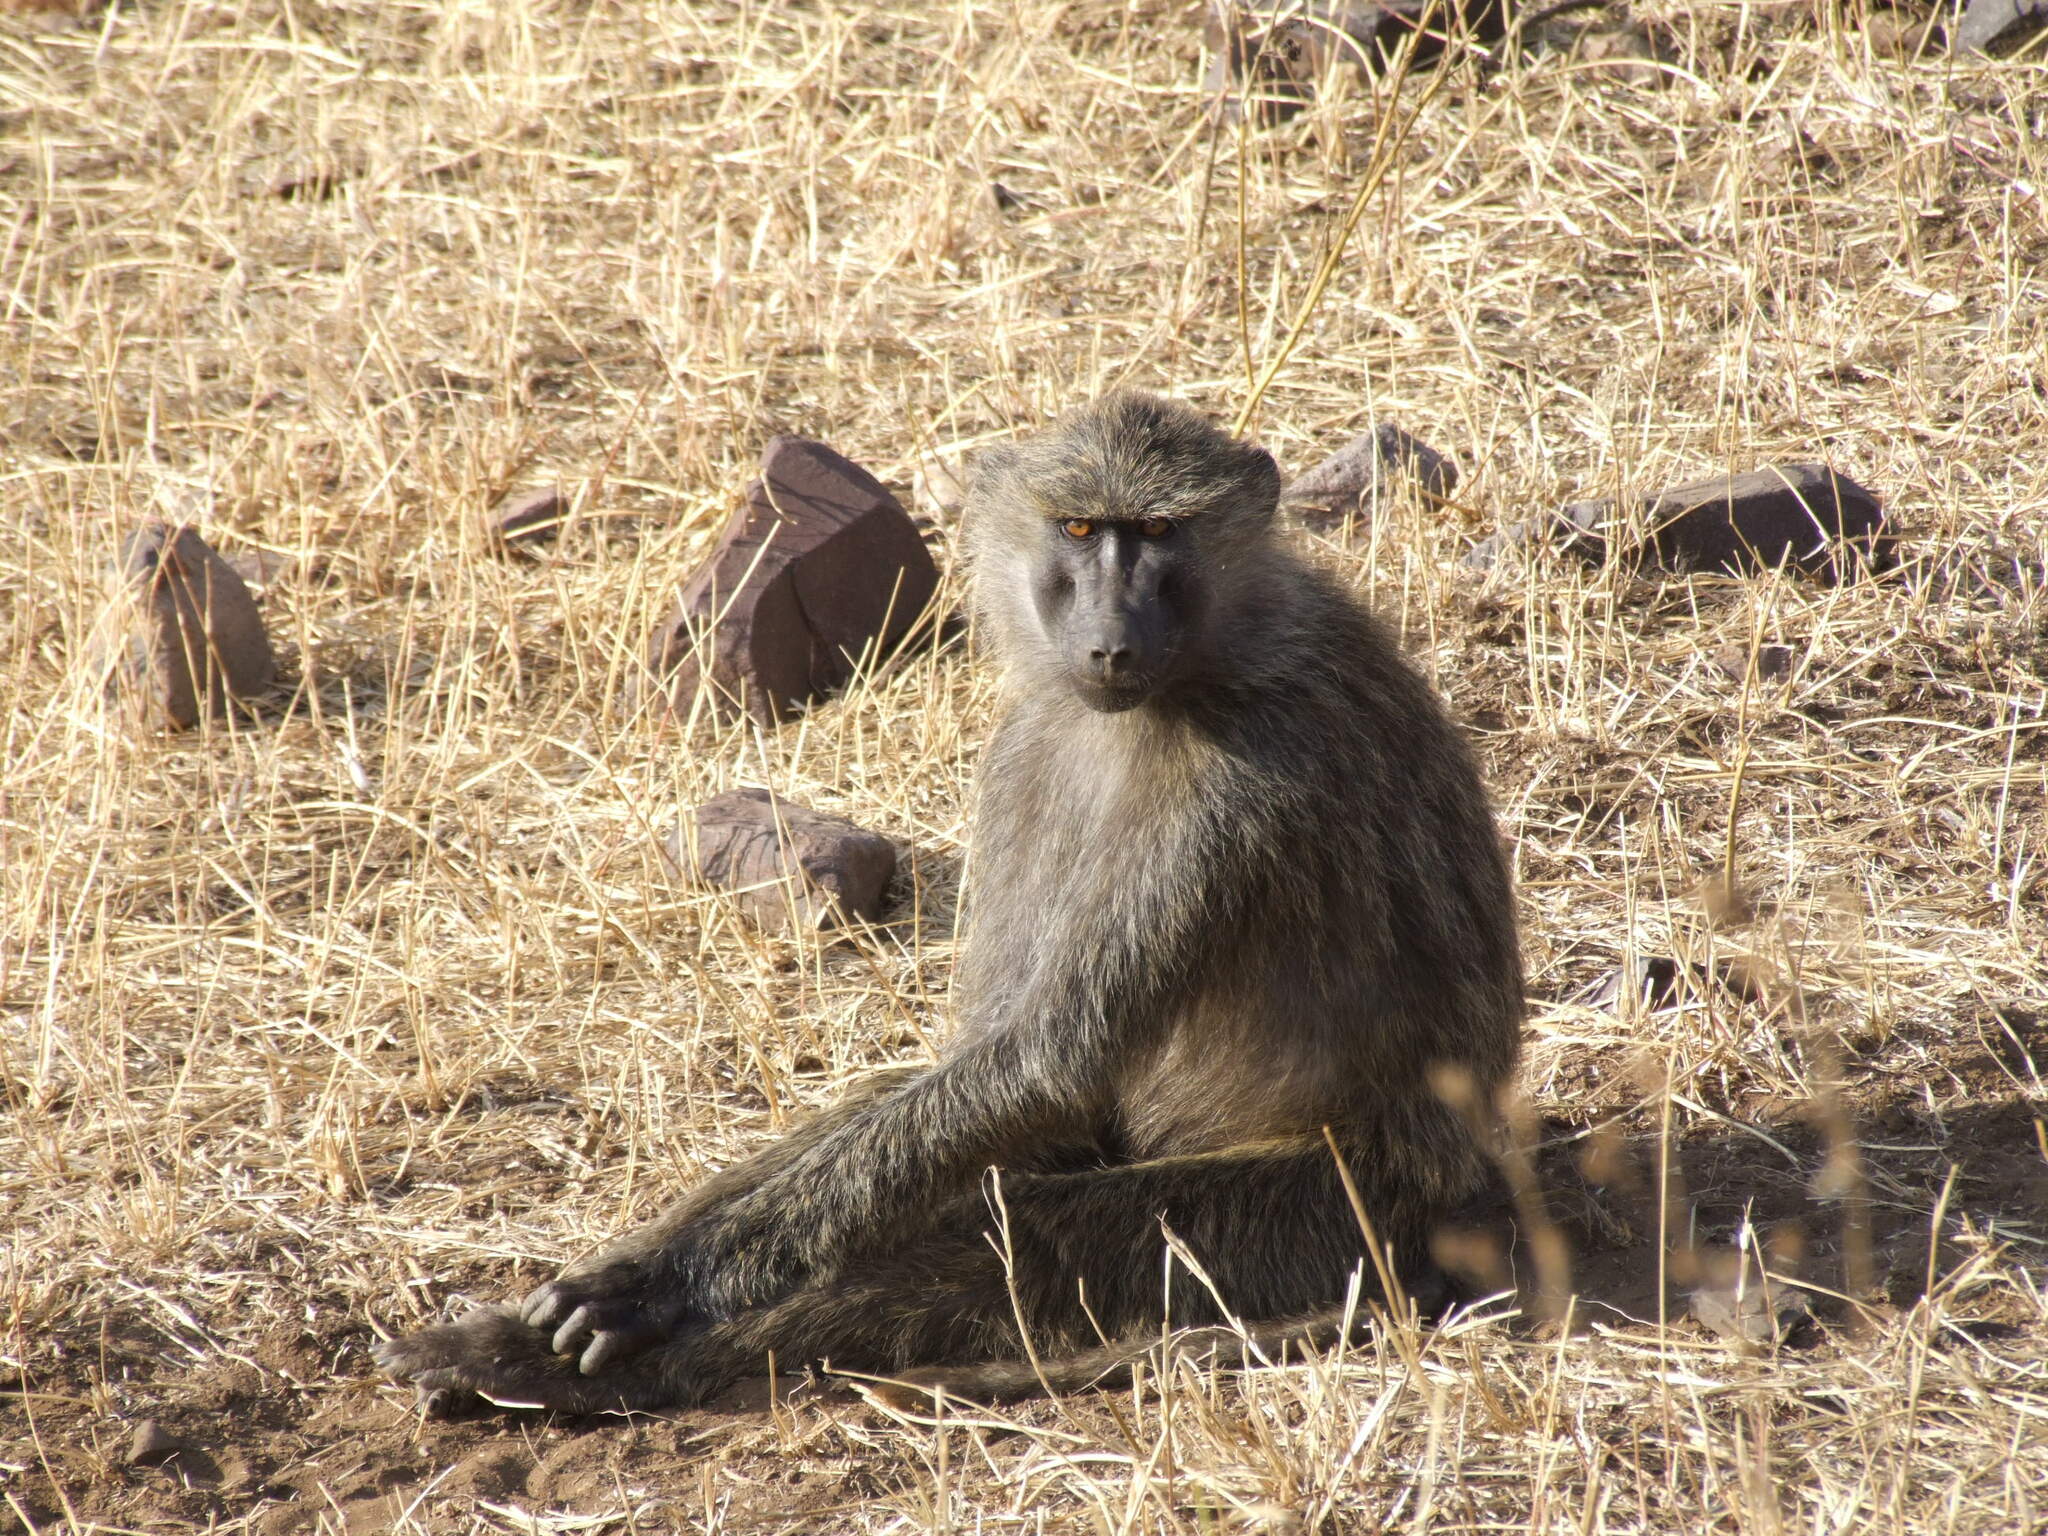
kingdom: Animalia
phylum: Chordata
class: Mammalia
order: Primates
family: Cercopithecidae
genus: Papio
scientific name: Papio anubis
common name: Olive baboon
